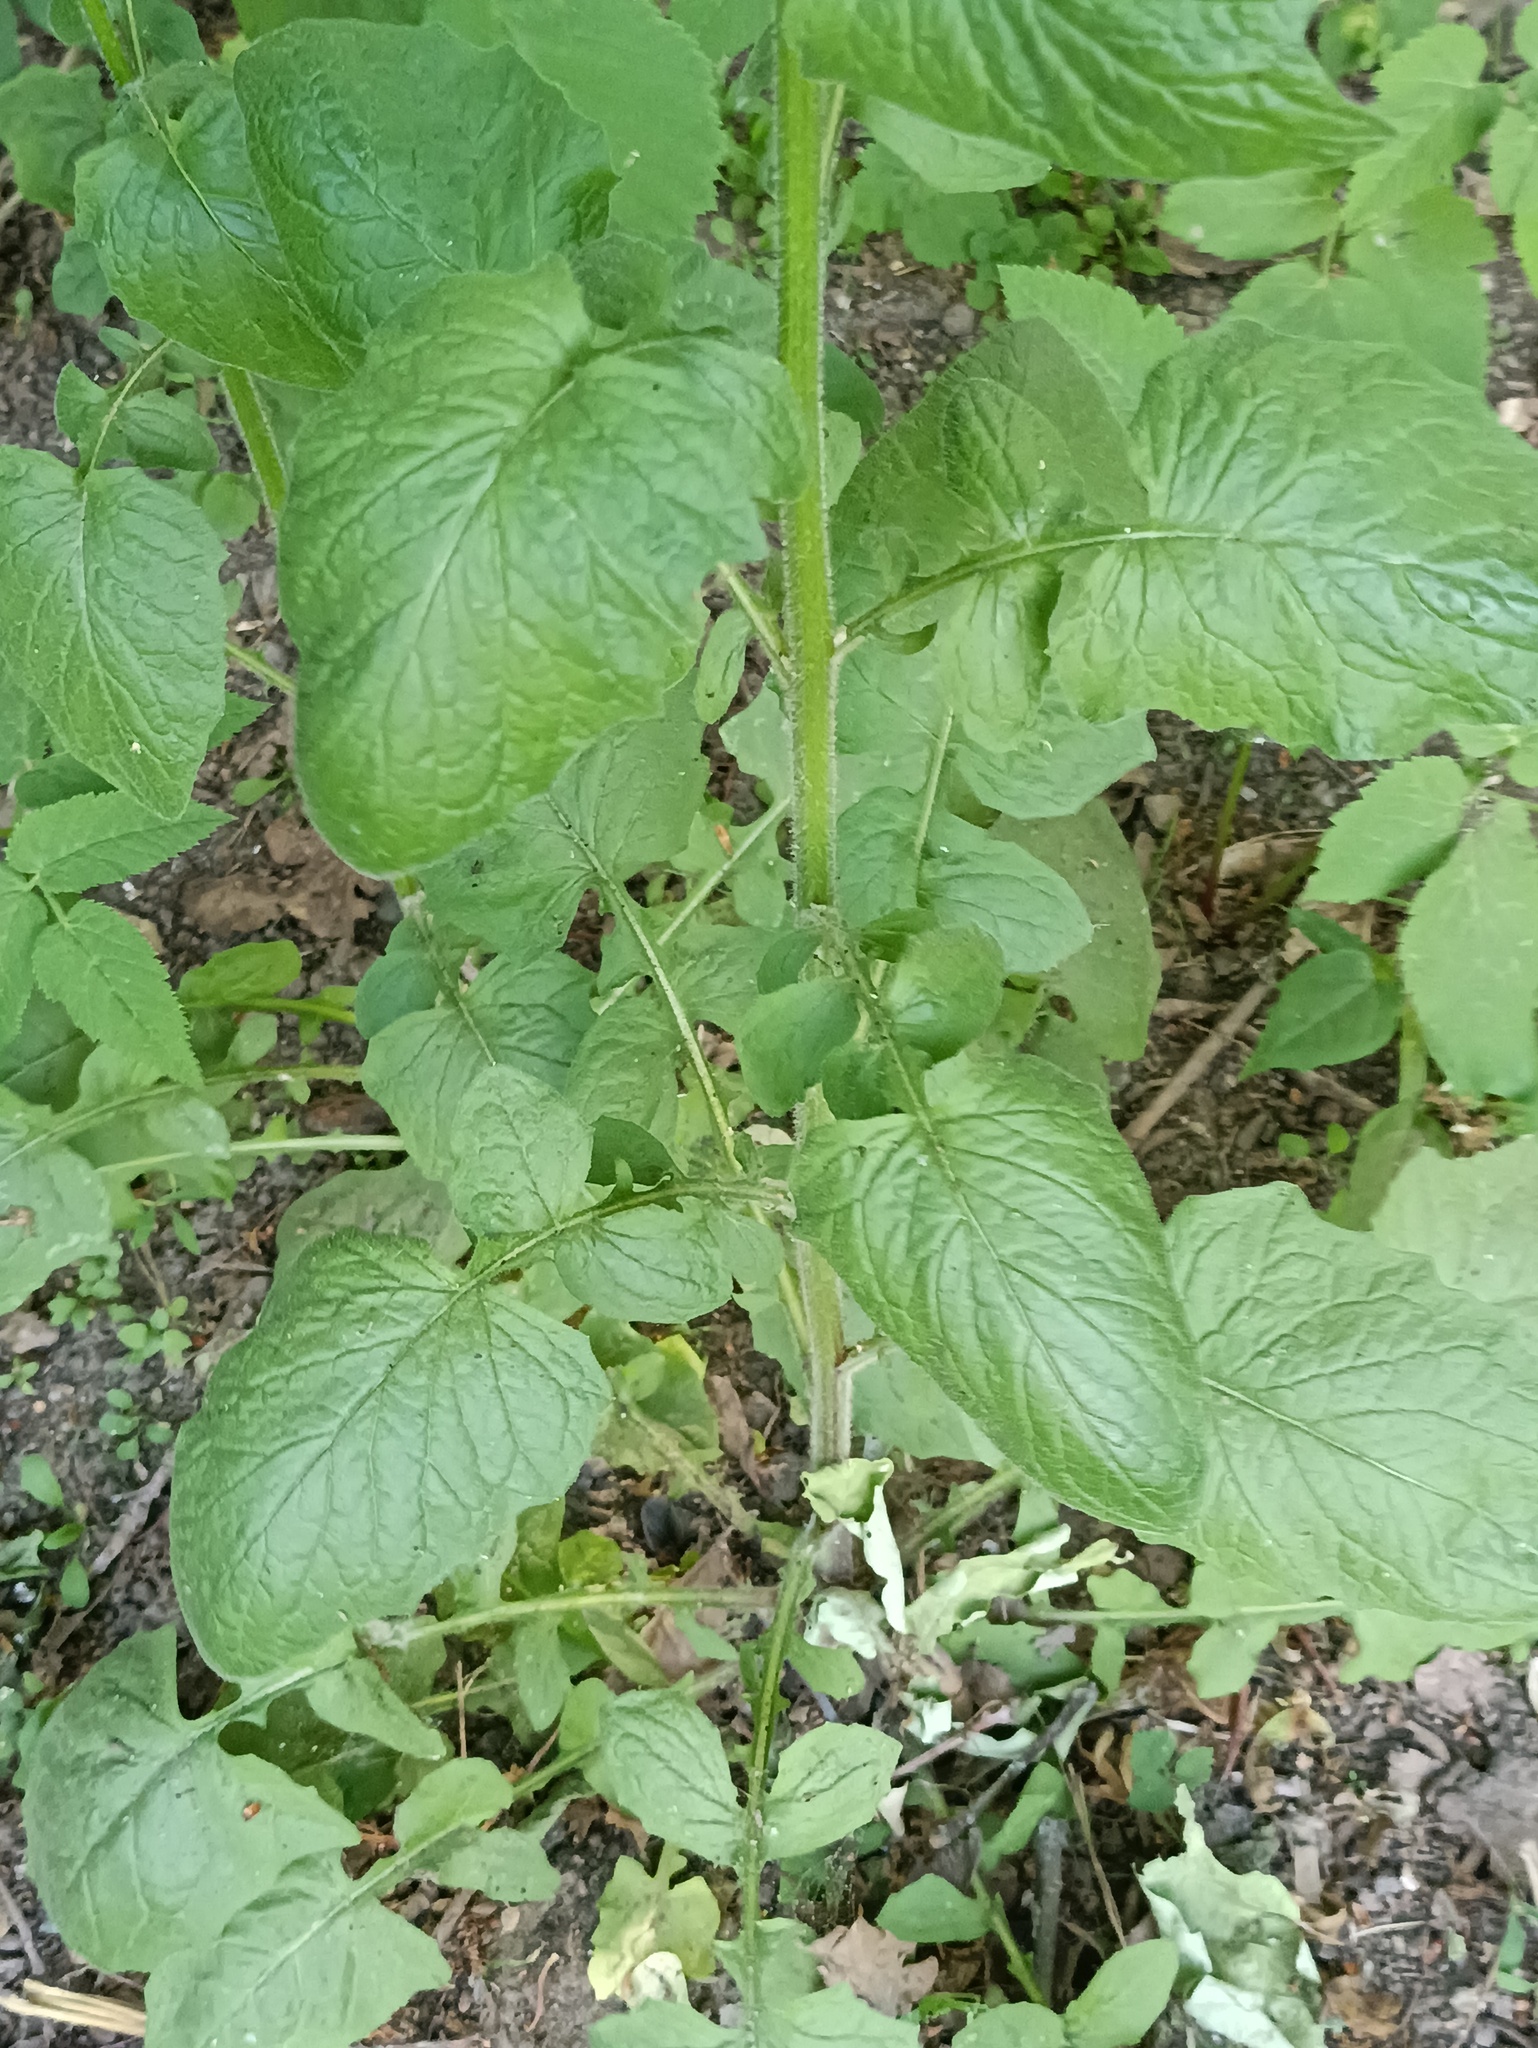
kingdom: Plantae
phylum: Tracheophyta
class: Magnoliopsida
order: Asterales
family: Asteraceae
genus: Lapsana
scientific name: Lapsana communis
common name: Nipplewort
